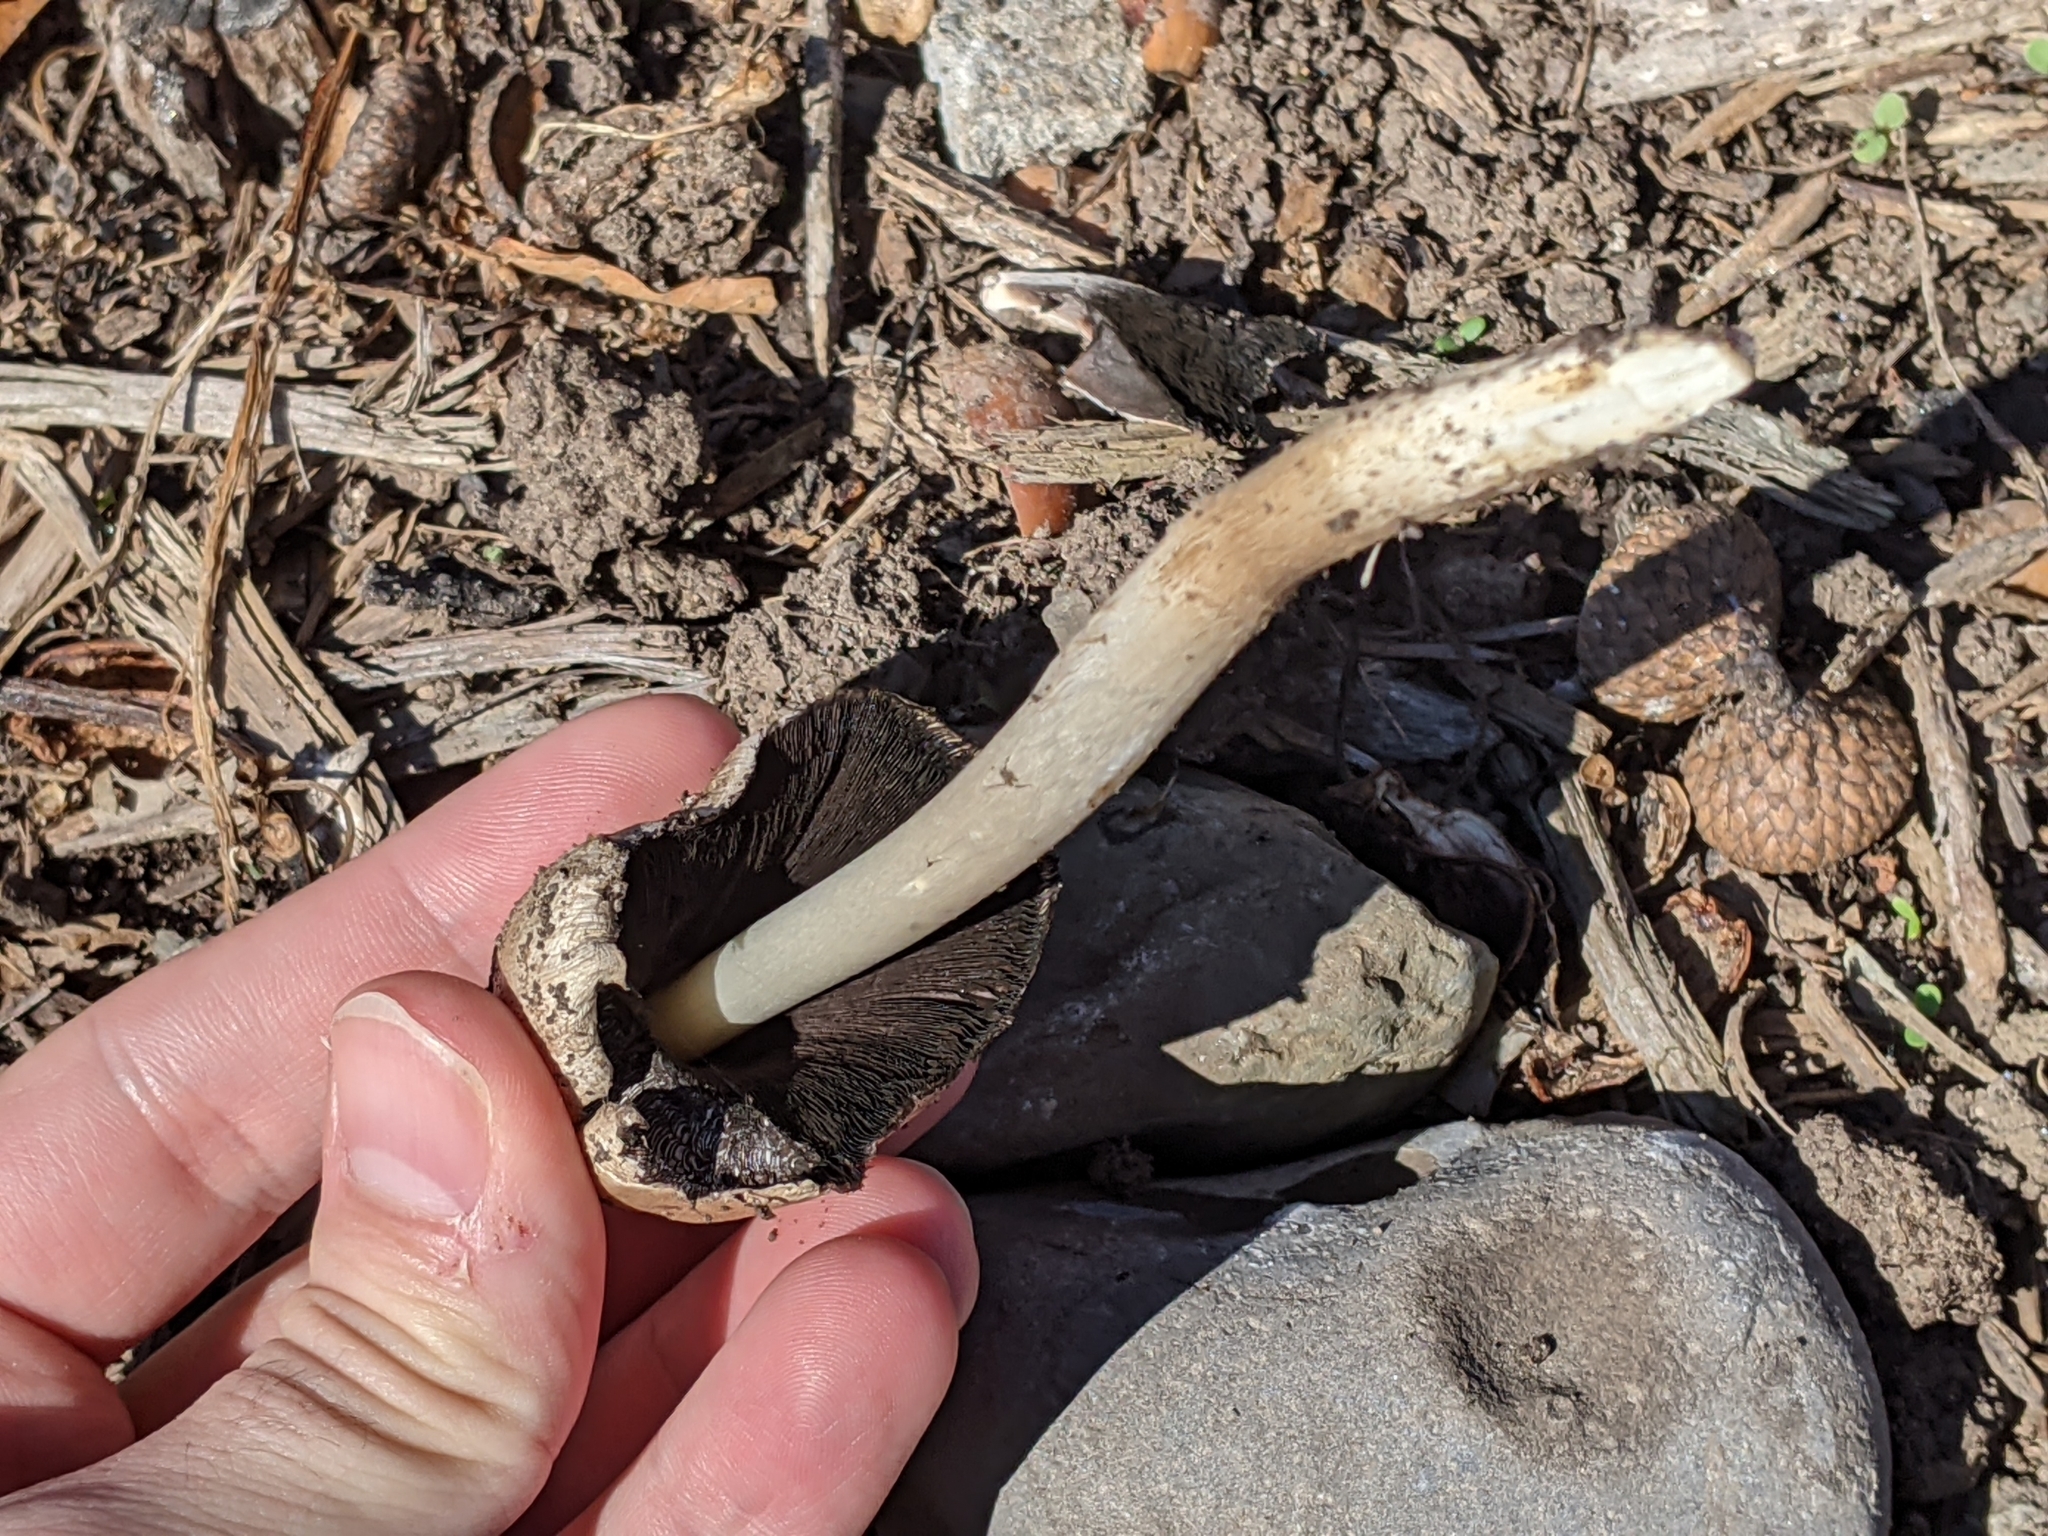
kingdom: Fungi
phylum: Basidiomycota
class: Agaricomycetes
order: Agaricales
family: Psathyrellaceae
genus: Coprinopsis
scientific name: Coprinopsis atramentaria
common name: Common ink-cap
